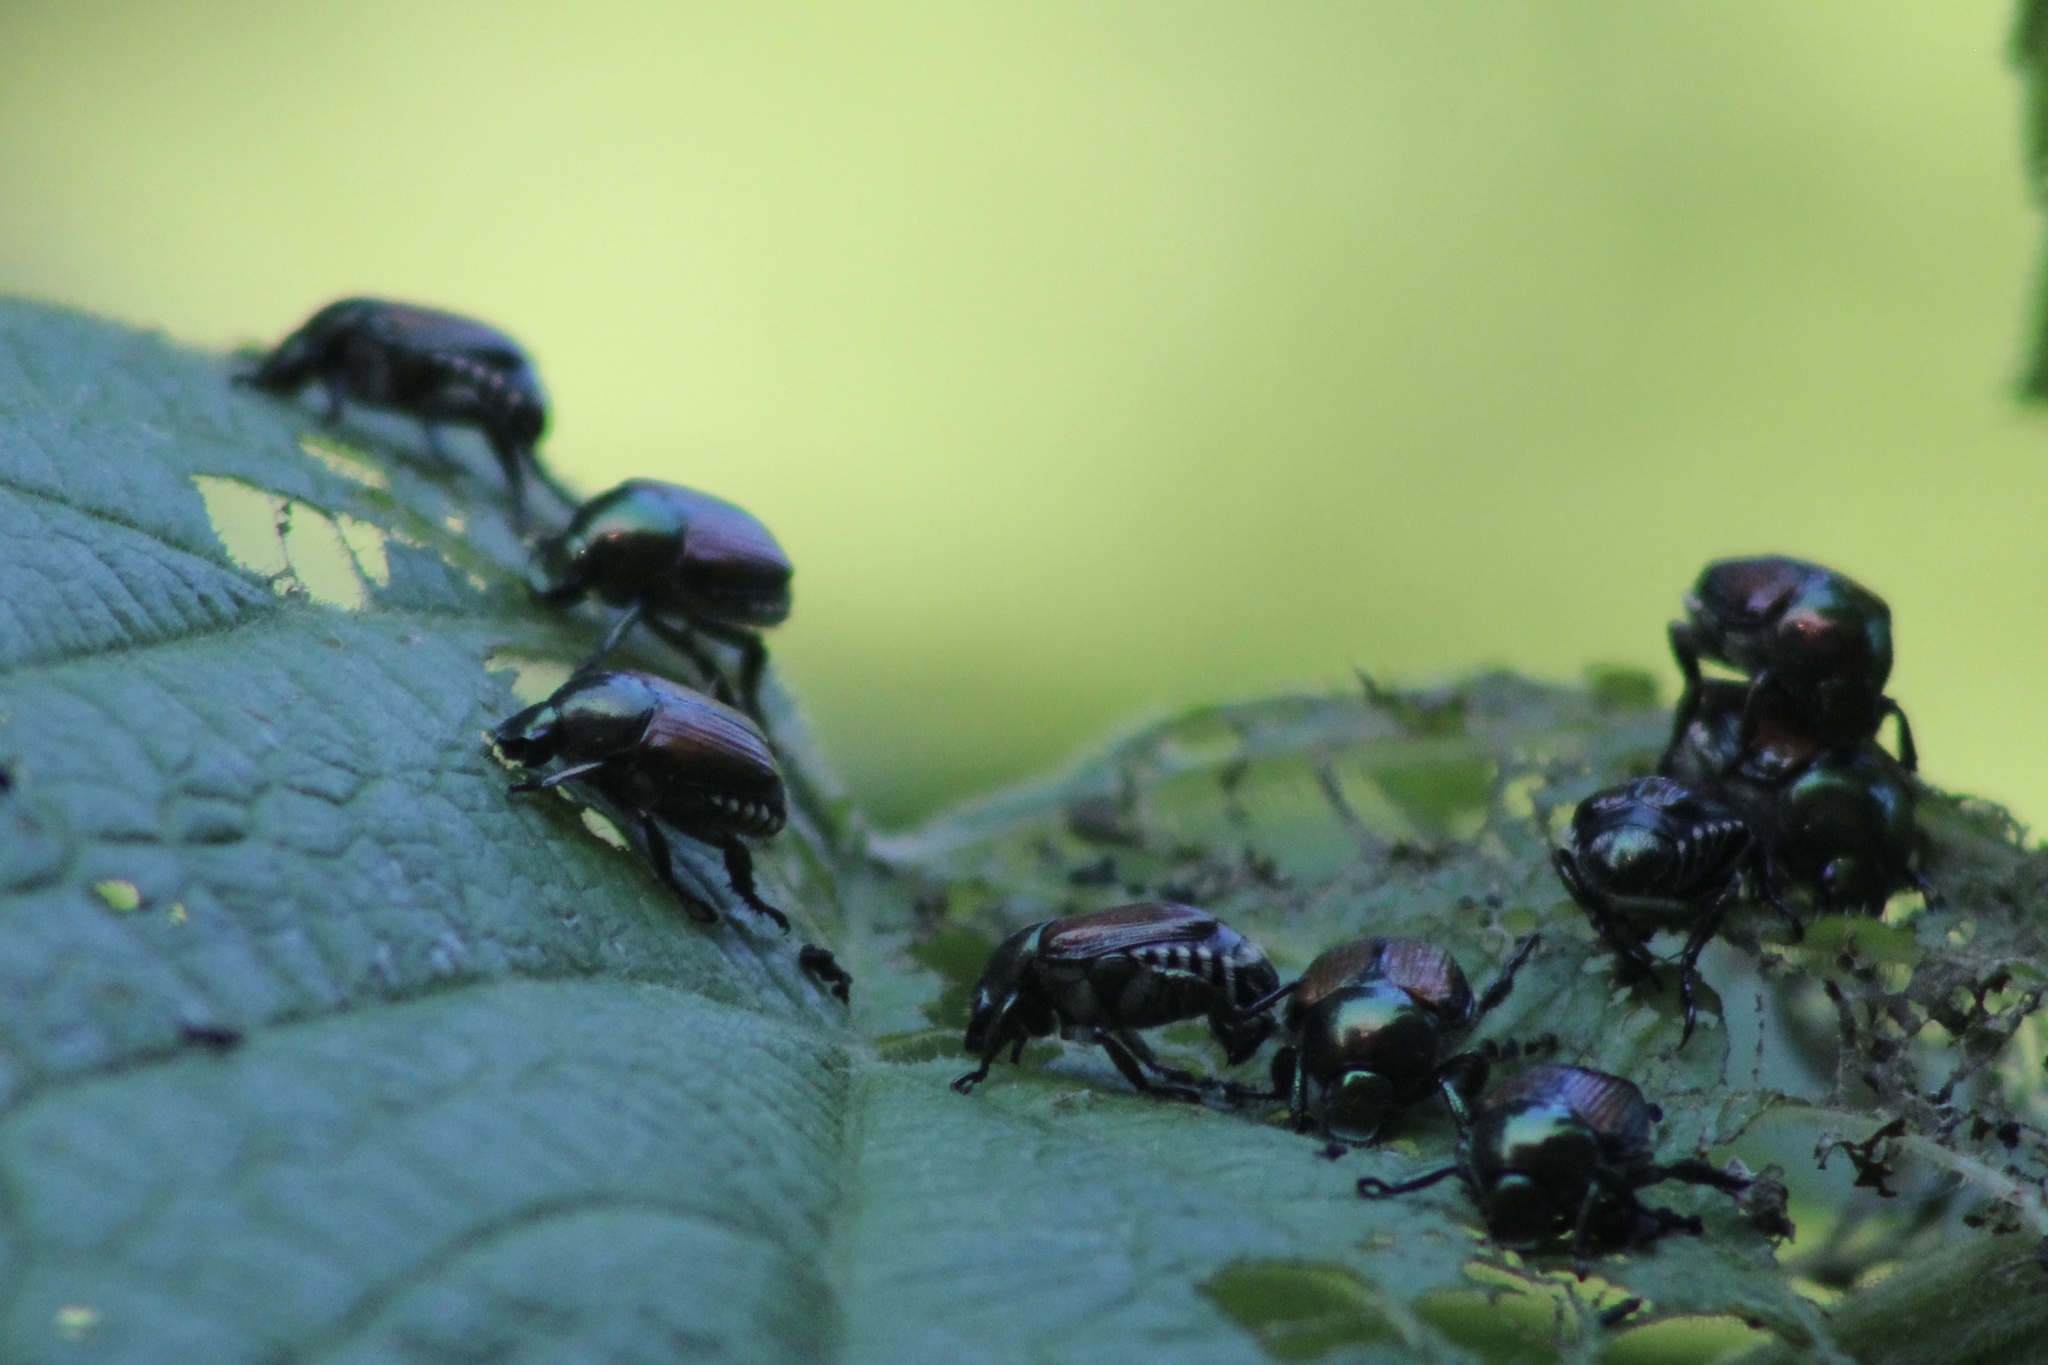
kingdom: Animalia
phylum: Arthropoda
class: Insecta
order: Coleoptera
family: Scarabaeidae
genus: Popillia
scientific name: Popillia japonica
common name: Japanese beetle
